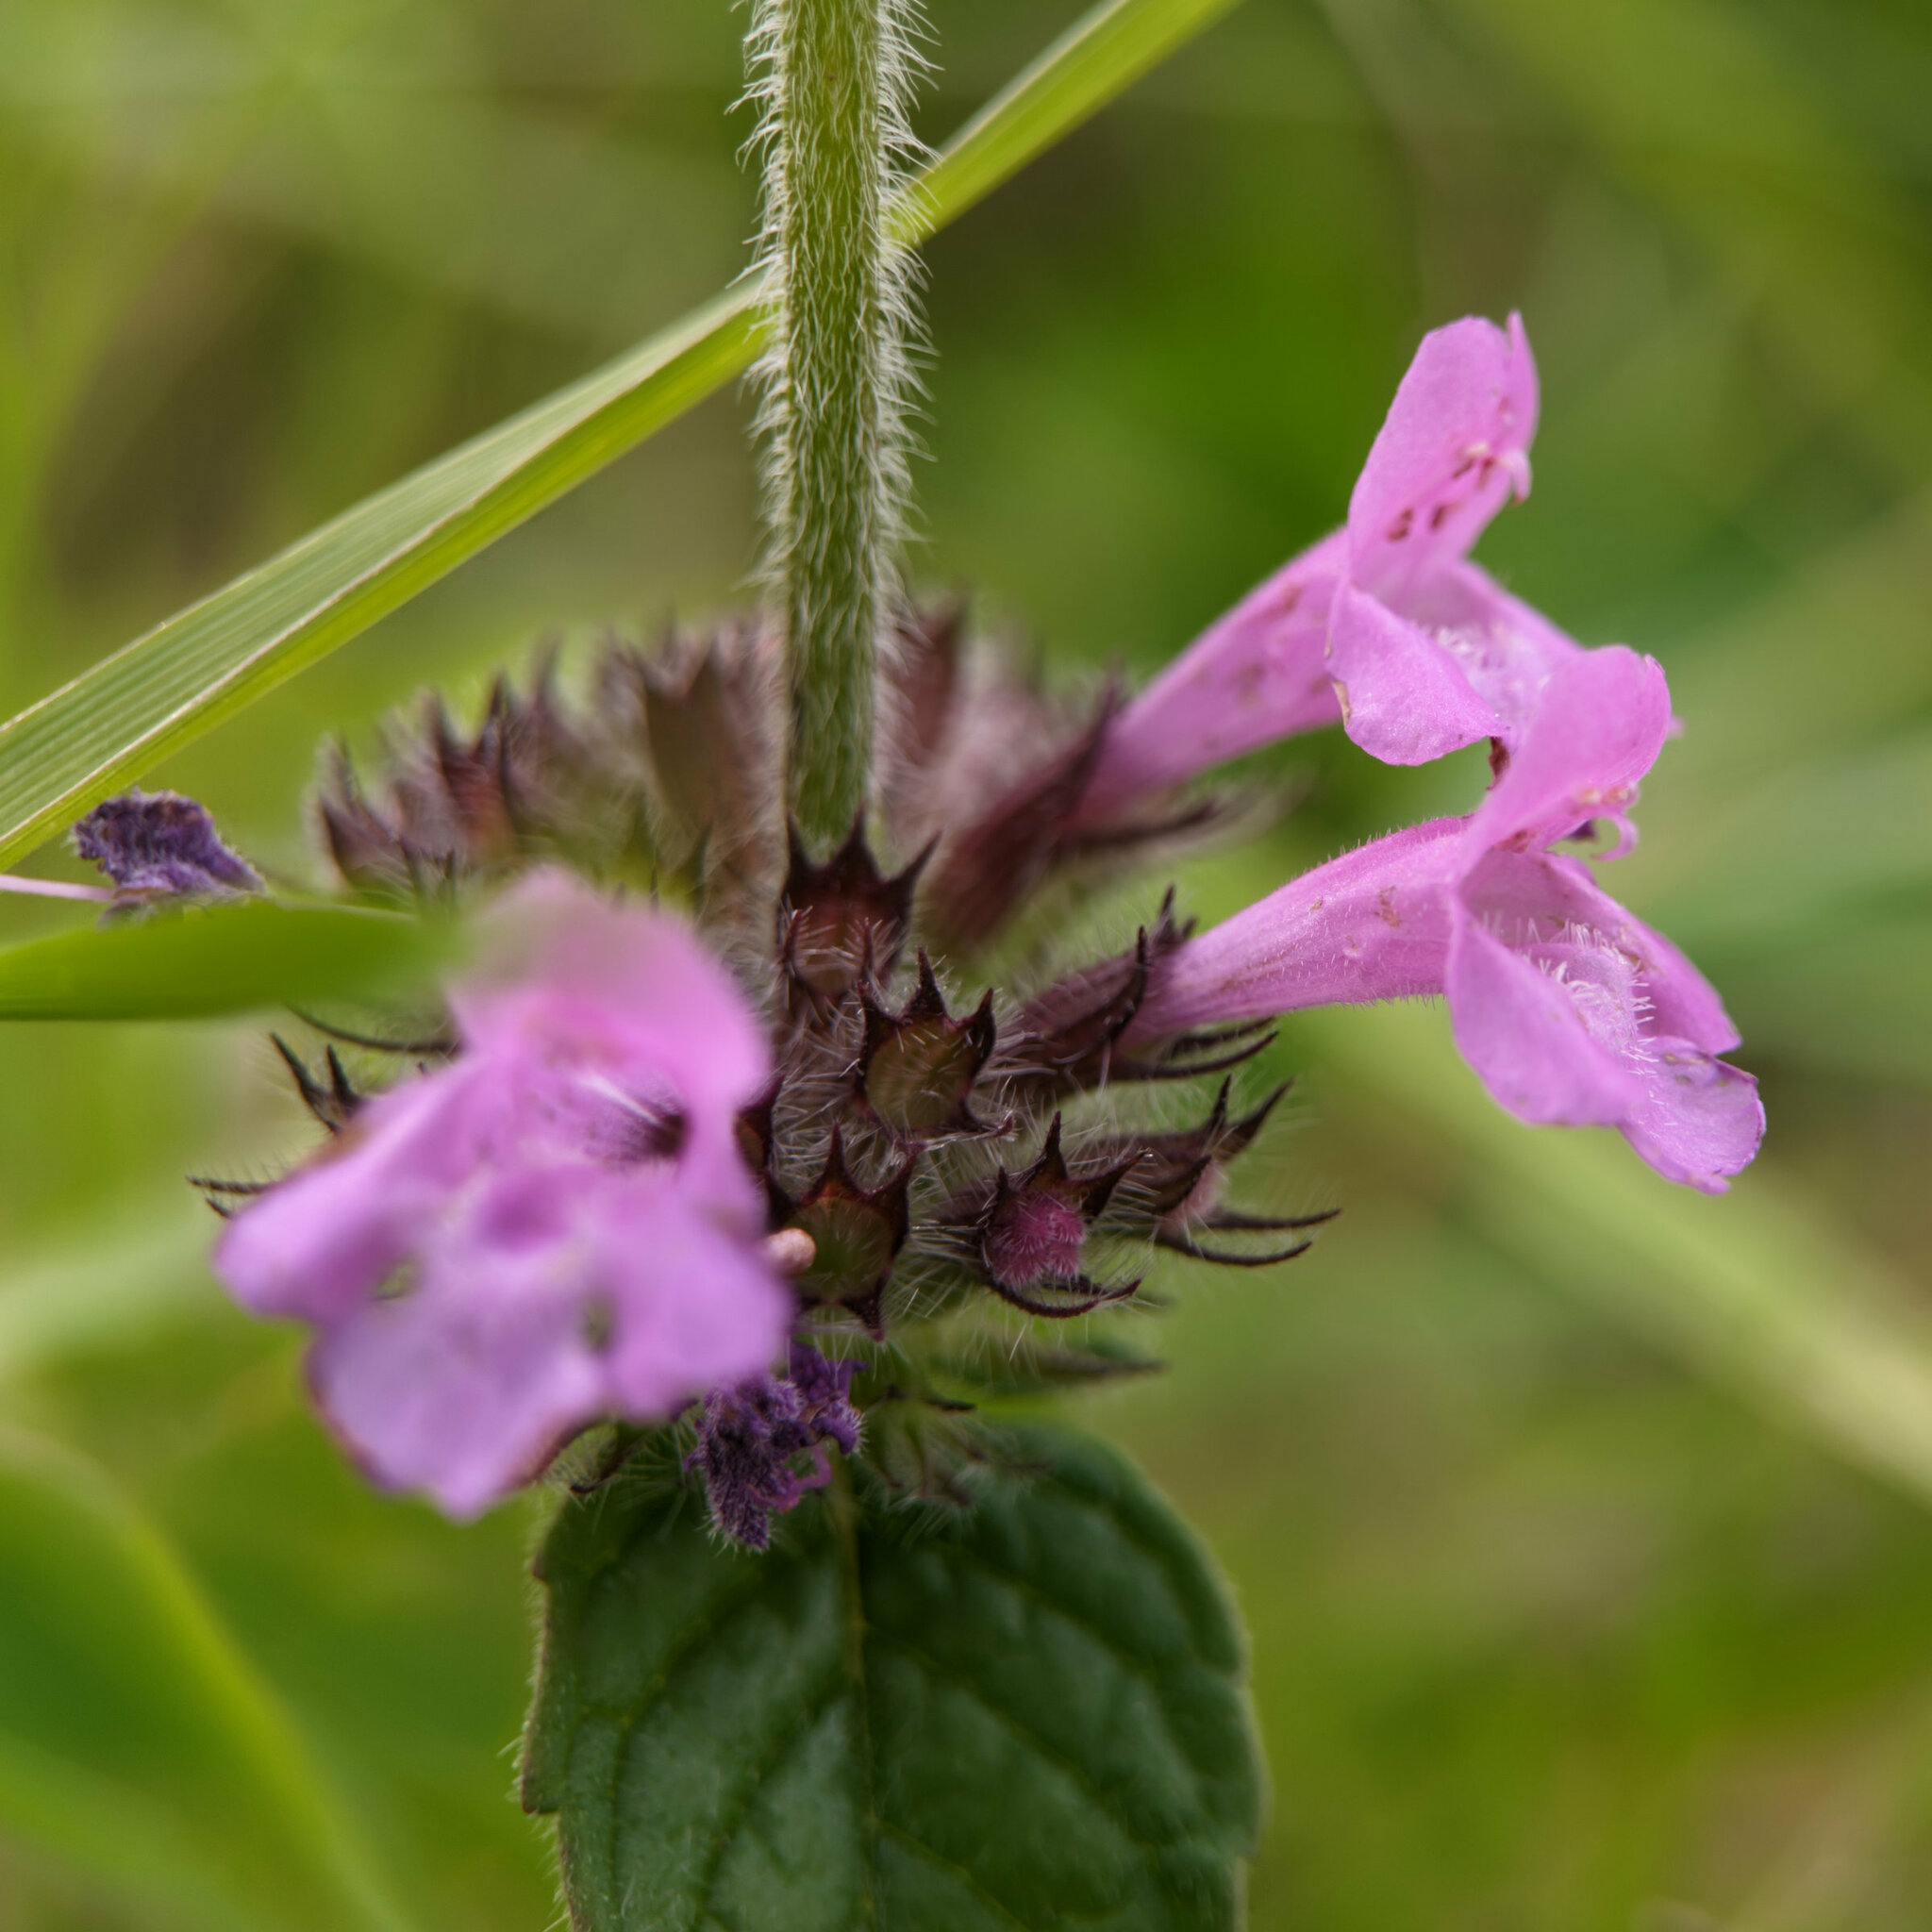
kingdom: Plantae
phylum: Tracheophyta
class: Magnoliopsida
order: Lamiales
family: Lamiaceae
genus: Clinopodium
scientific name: Clinopodium vulgare
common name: Wild basil
